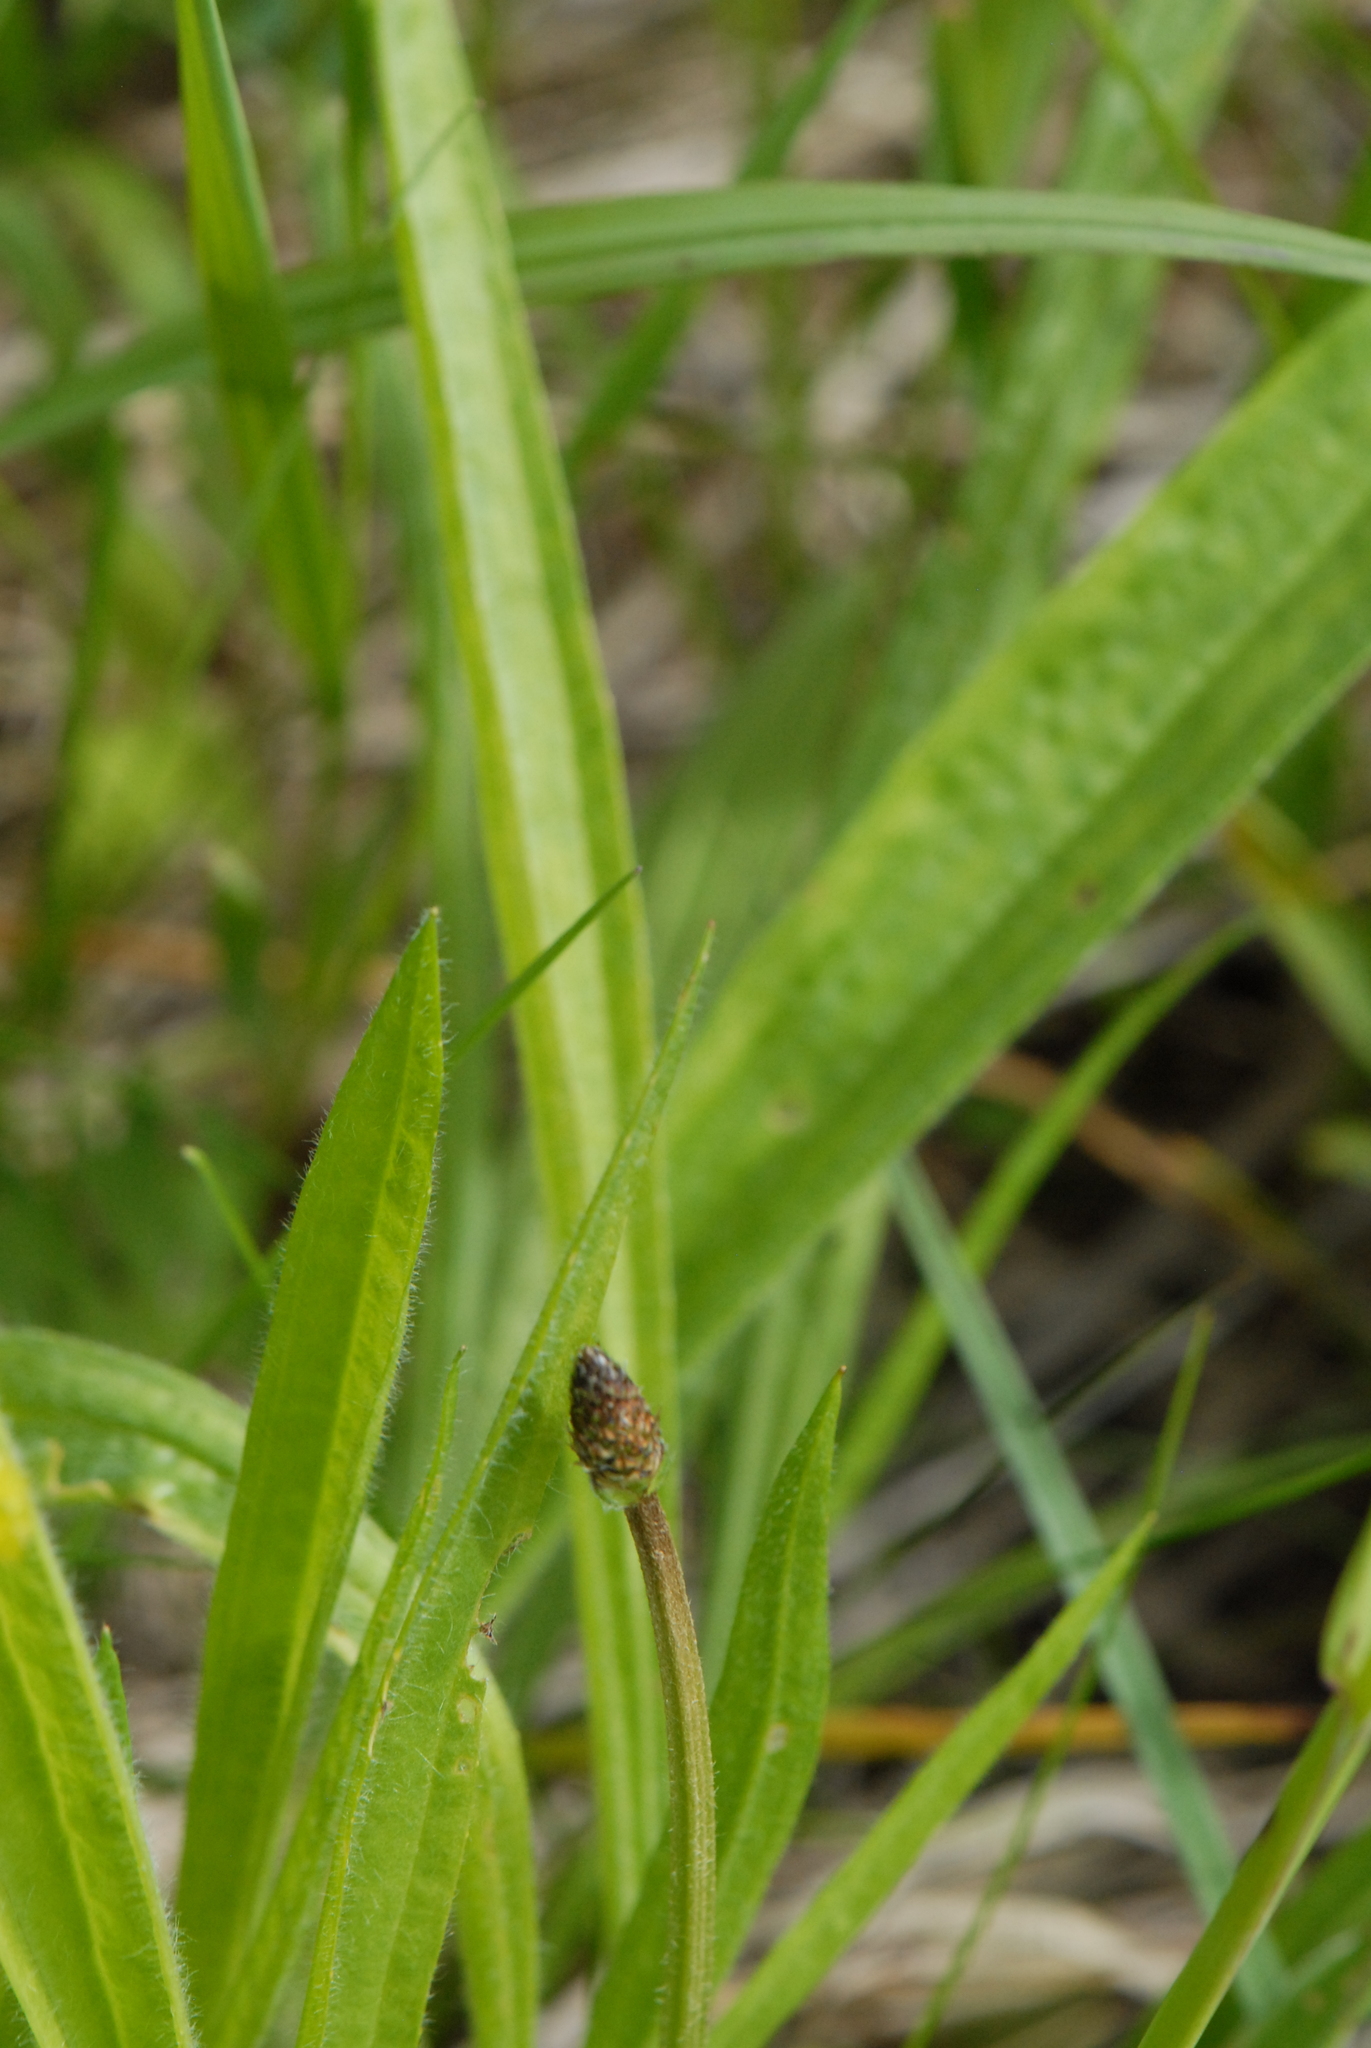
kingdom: Plantae
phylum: Tracheophyta
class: Magnoliopsida
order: Lamiales
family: Plantaginaceae
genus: Plantago
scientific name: Plantago lanceolata
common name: Ribwort plantain
